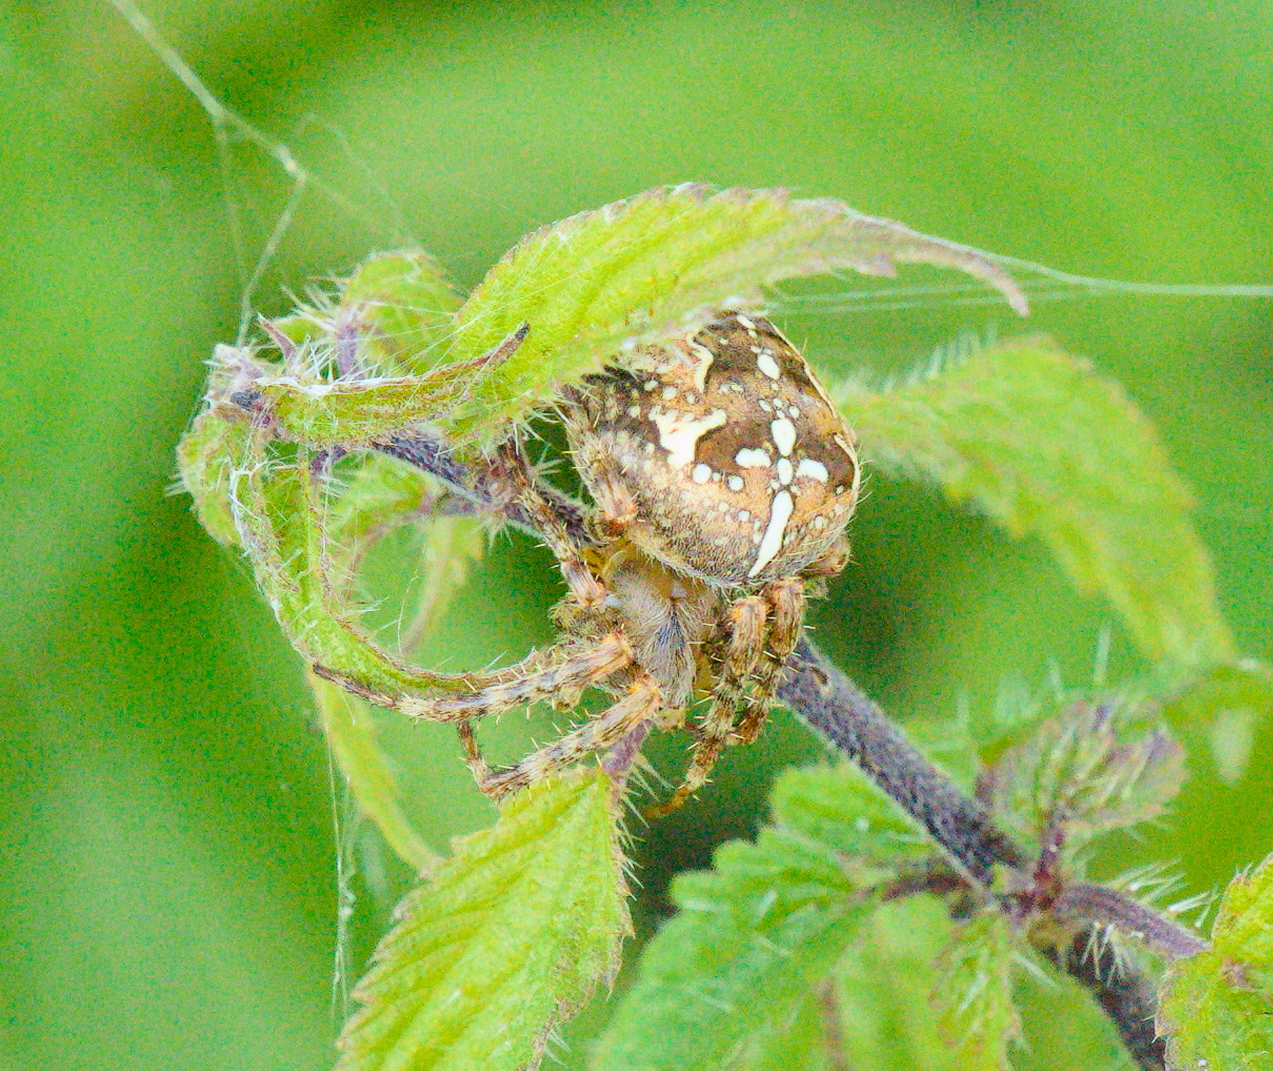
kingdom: Animalia
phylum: Arthropoda
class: Arachnida
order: Araneae
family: Araneidae
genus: Araneus
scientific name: Araneus diadematus
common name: Cross orbweaver
